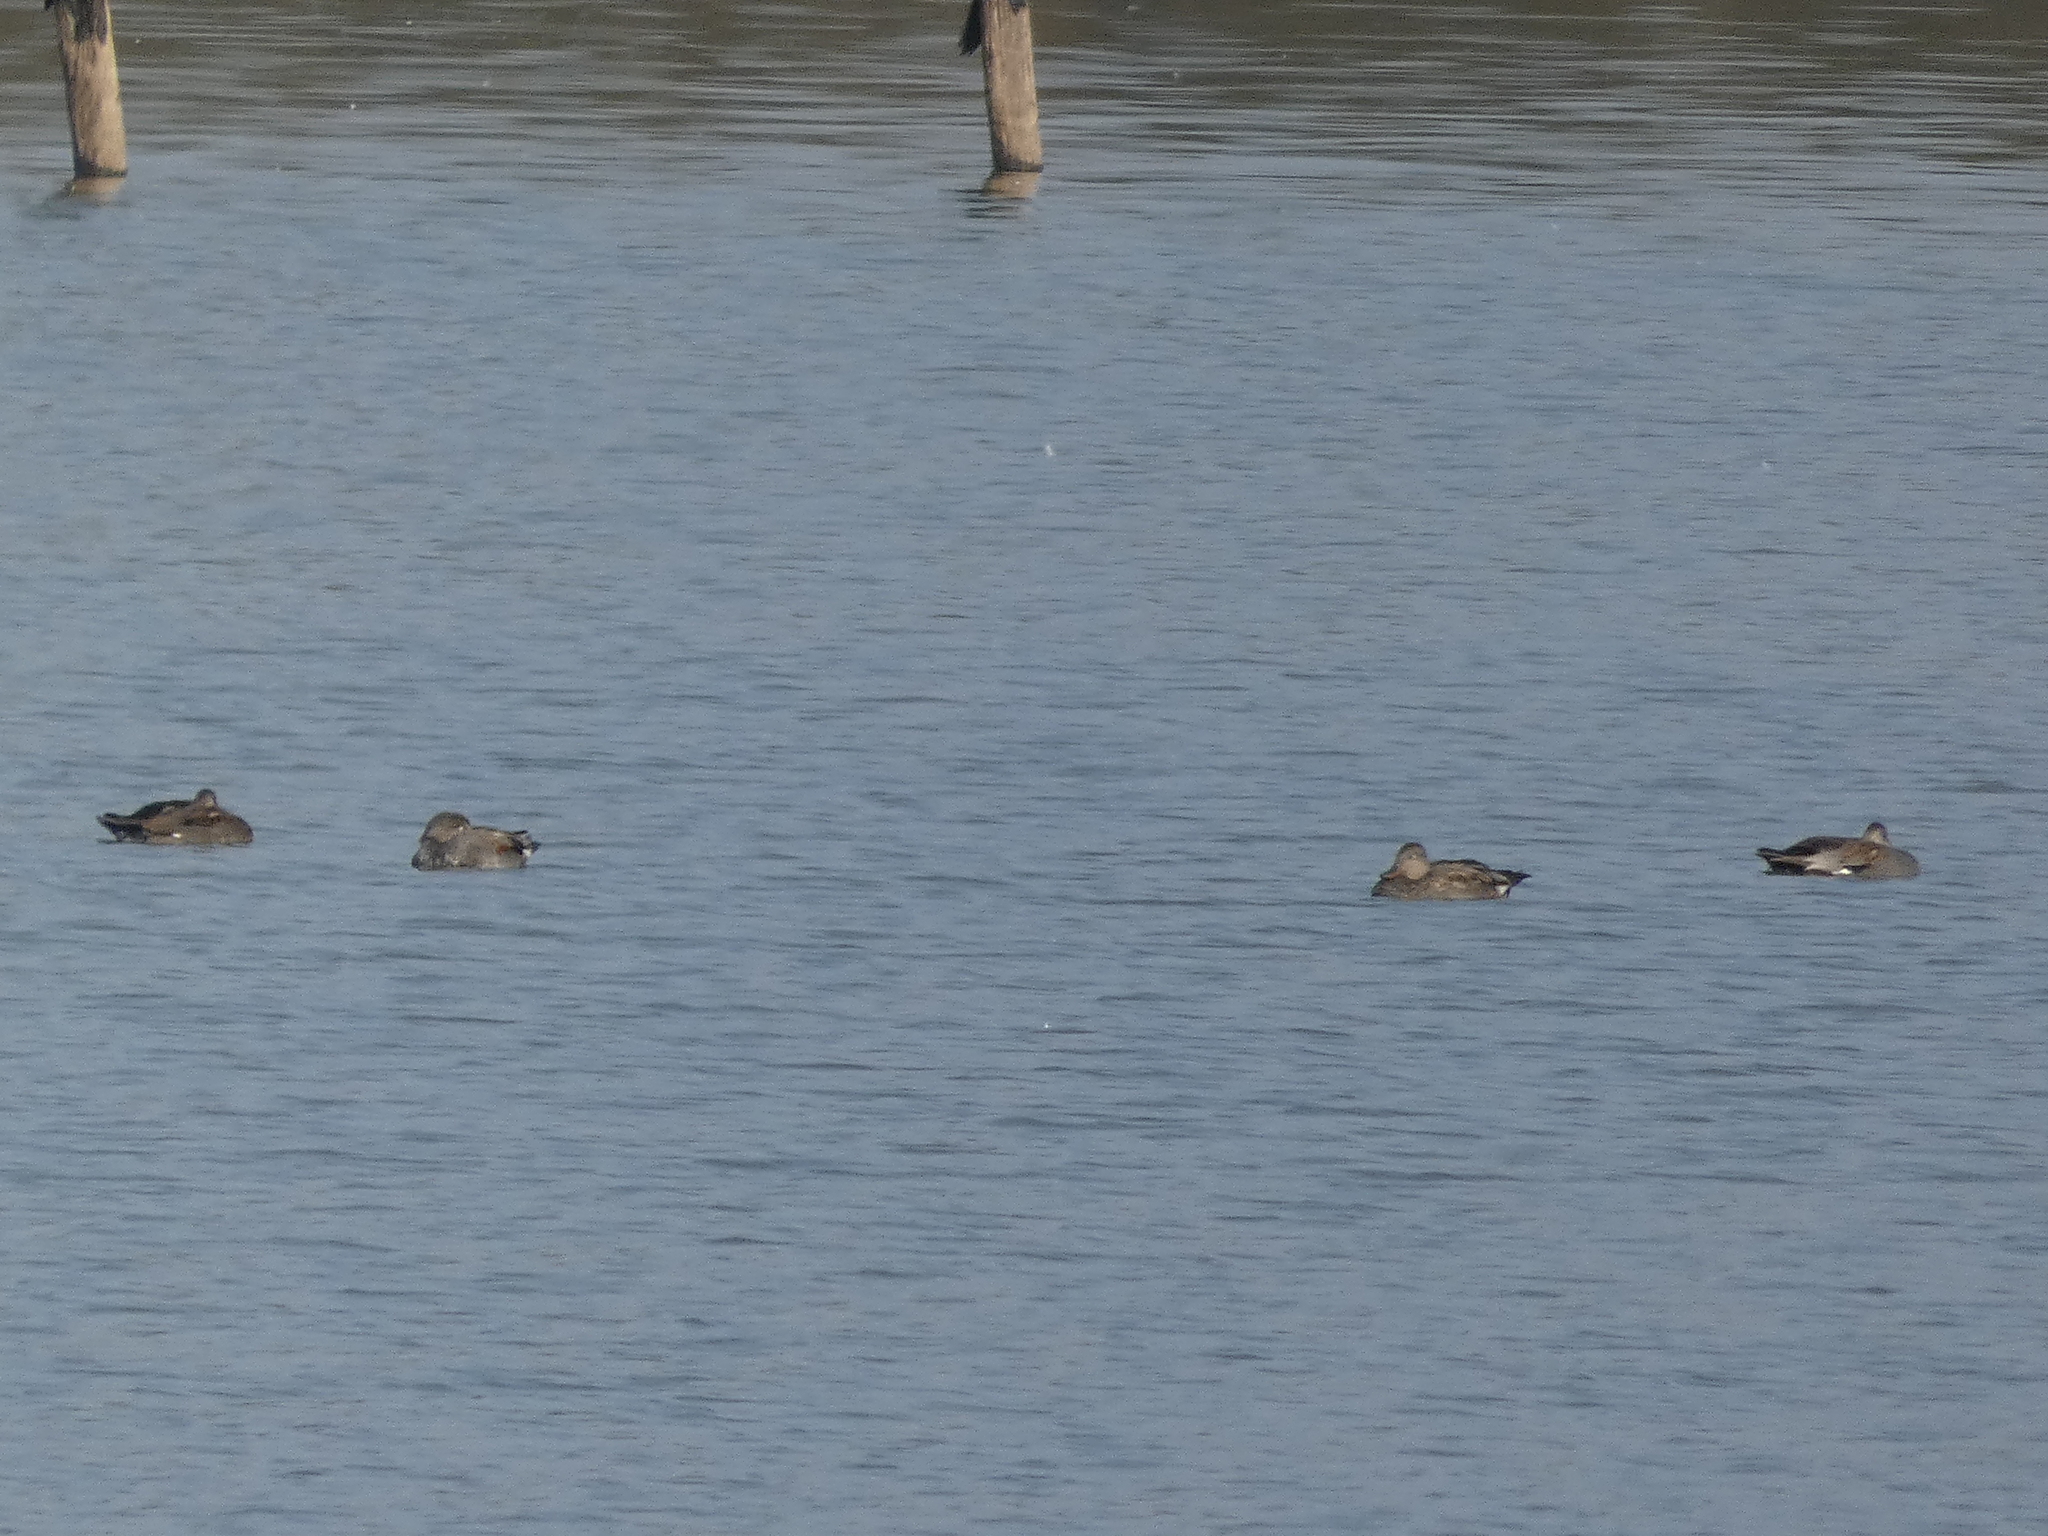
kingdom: Animalia
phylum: Chordata
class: Aves
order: Anseriformes
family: Anatidae
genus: Mareca
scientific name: Mareca strepera
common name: Gadwall
